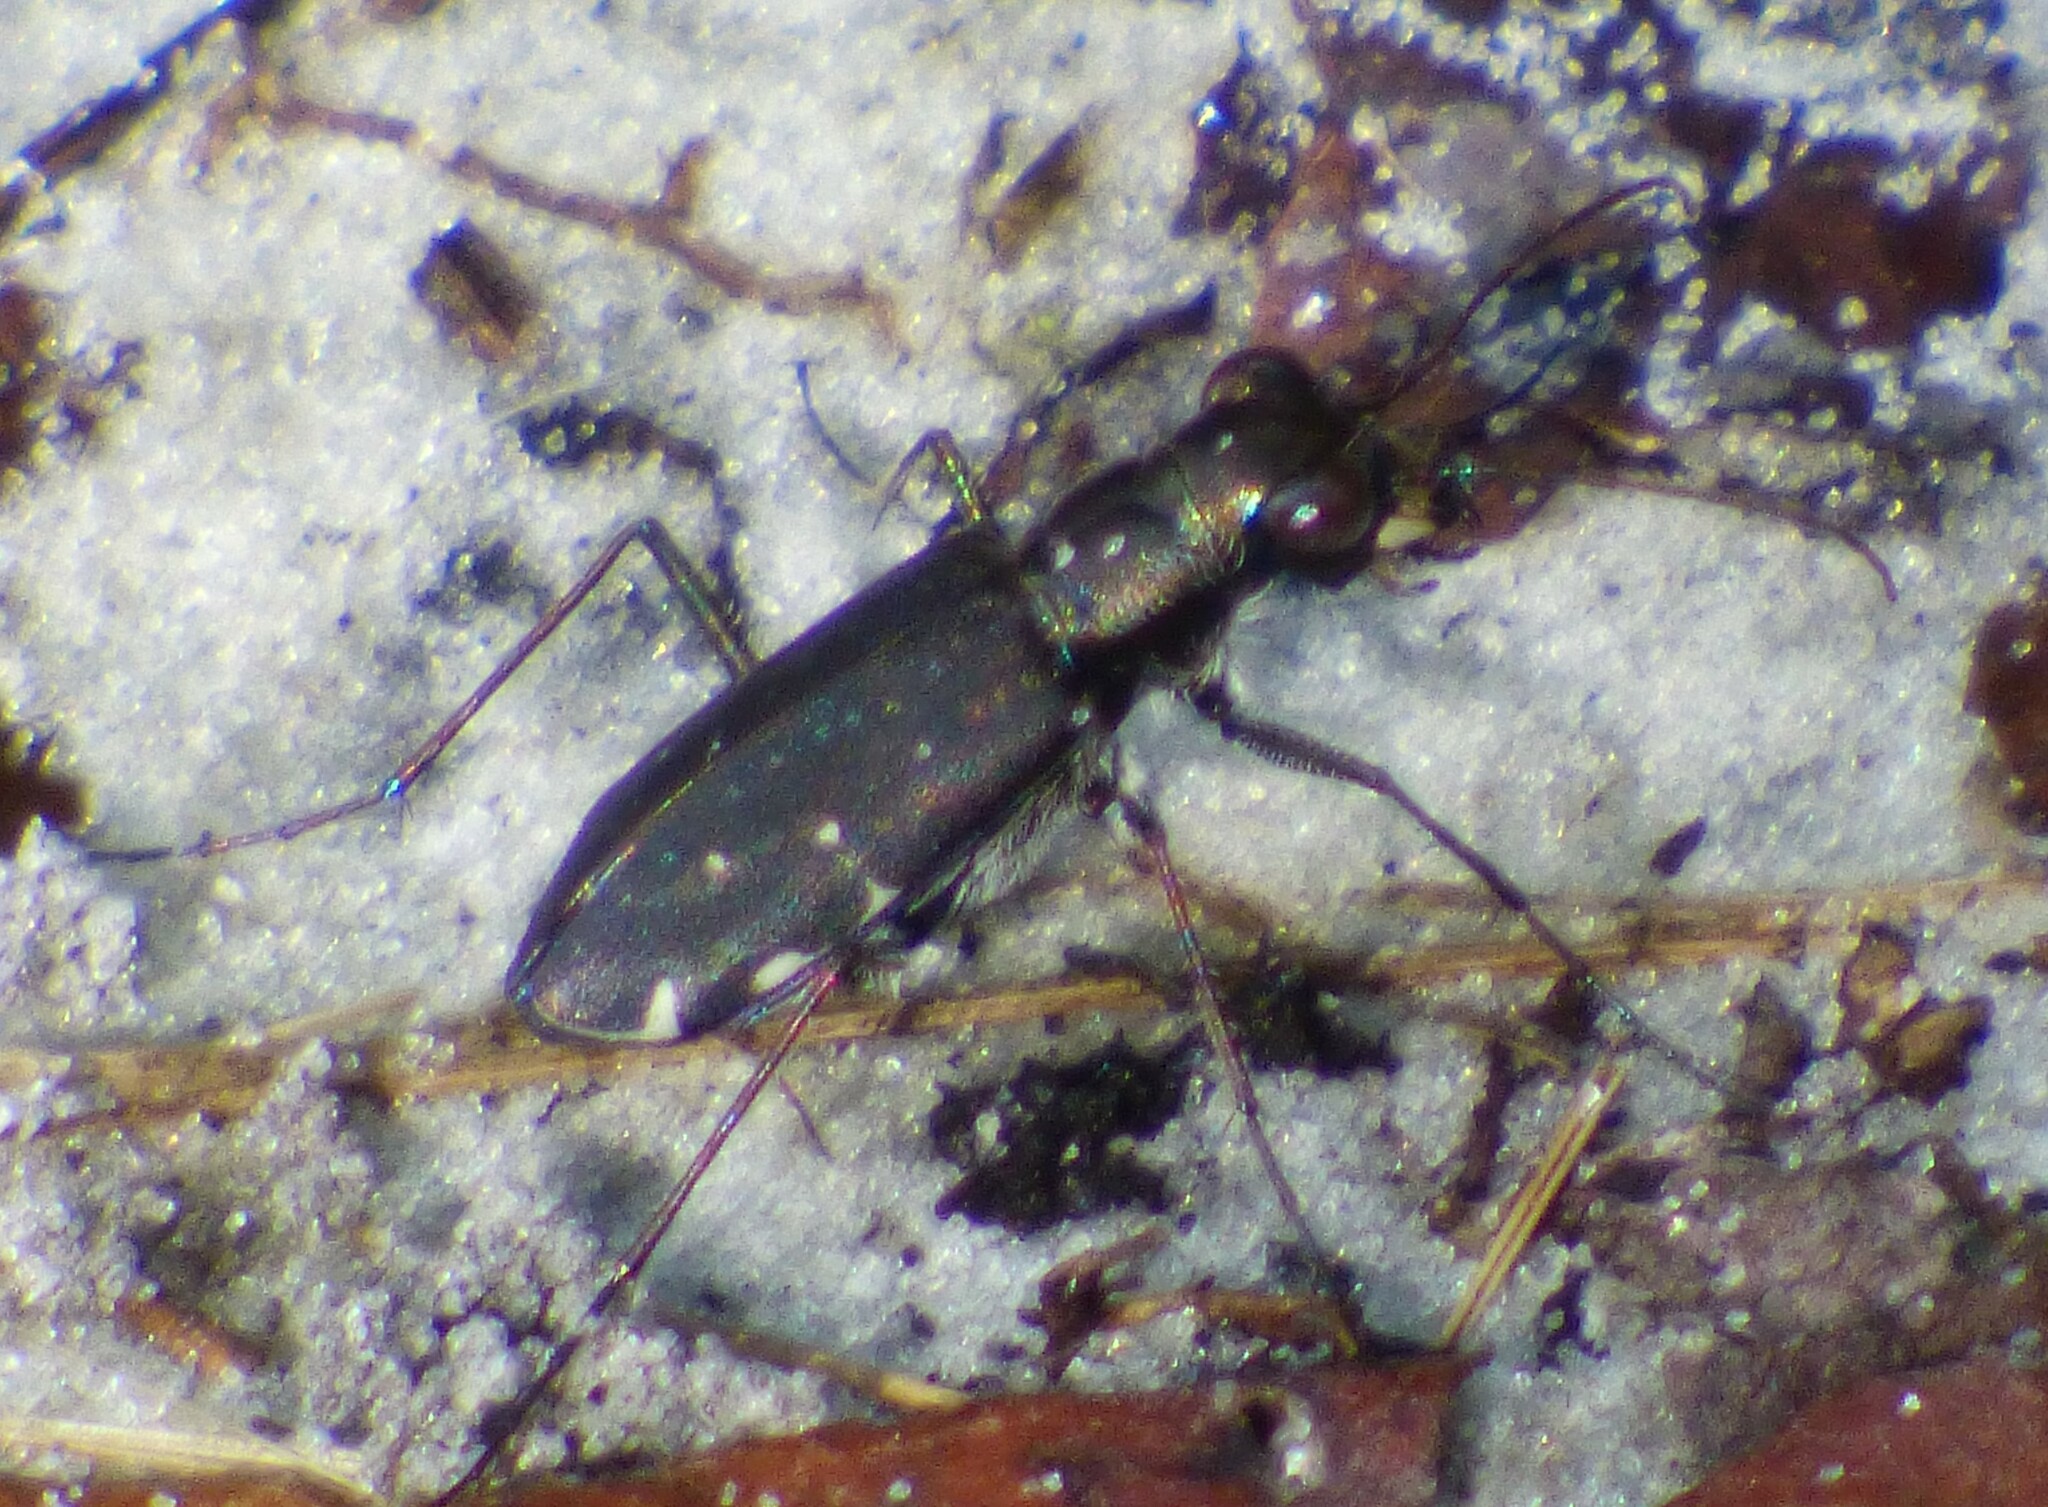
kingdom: Animalia
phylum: Arthropoda
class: Insecta
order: Coleoptera
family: Carabidae
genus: Cicindela
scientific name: Cicindela punctulata
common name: Punctured tiger beetle
